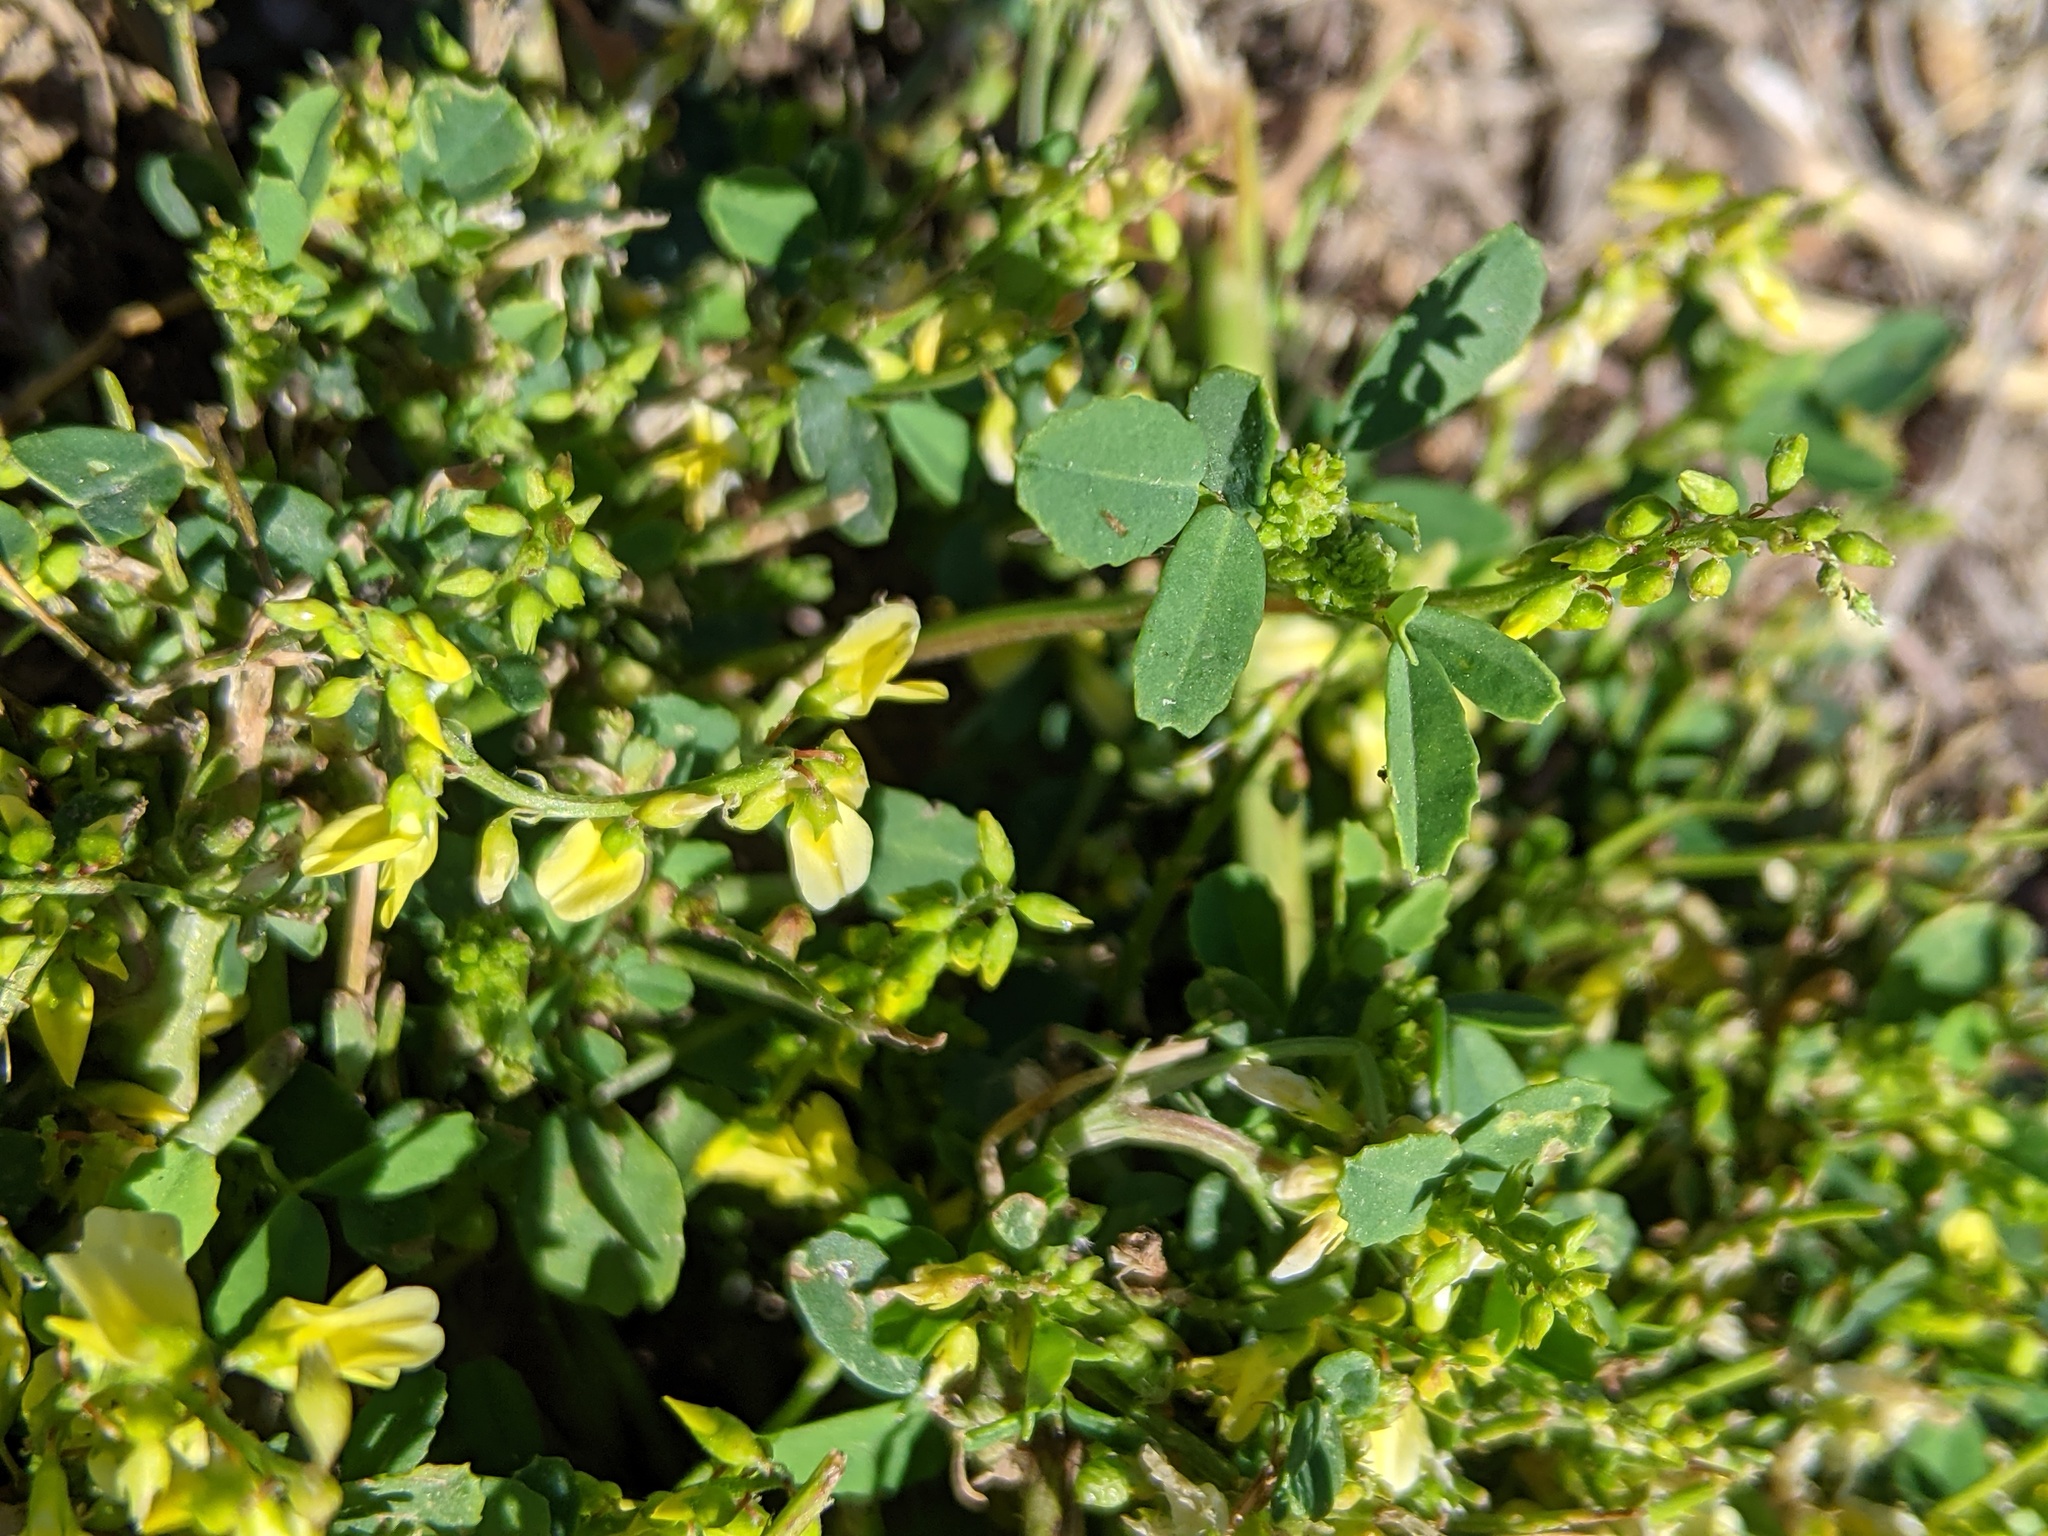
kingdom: Plantae
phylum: Tracheophyta
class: Magnoliopsida
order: Fabales
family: Fabaceae
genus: Melilotus
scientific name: Melilotus officinalis
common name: Sweetclover
